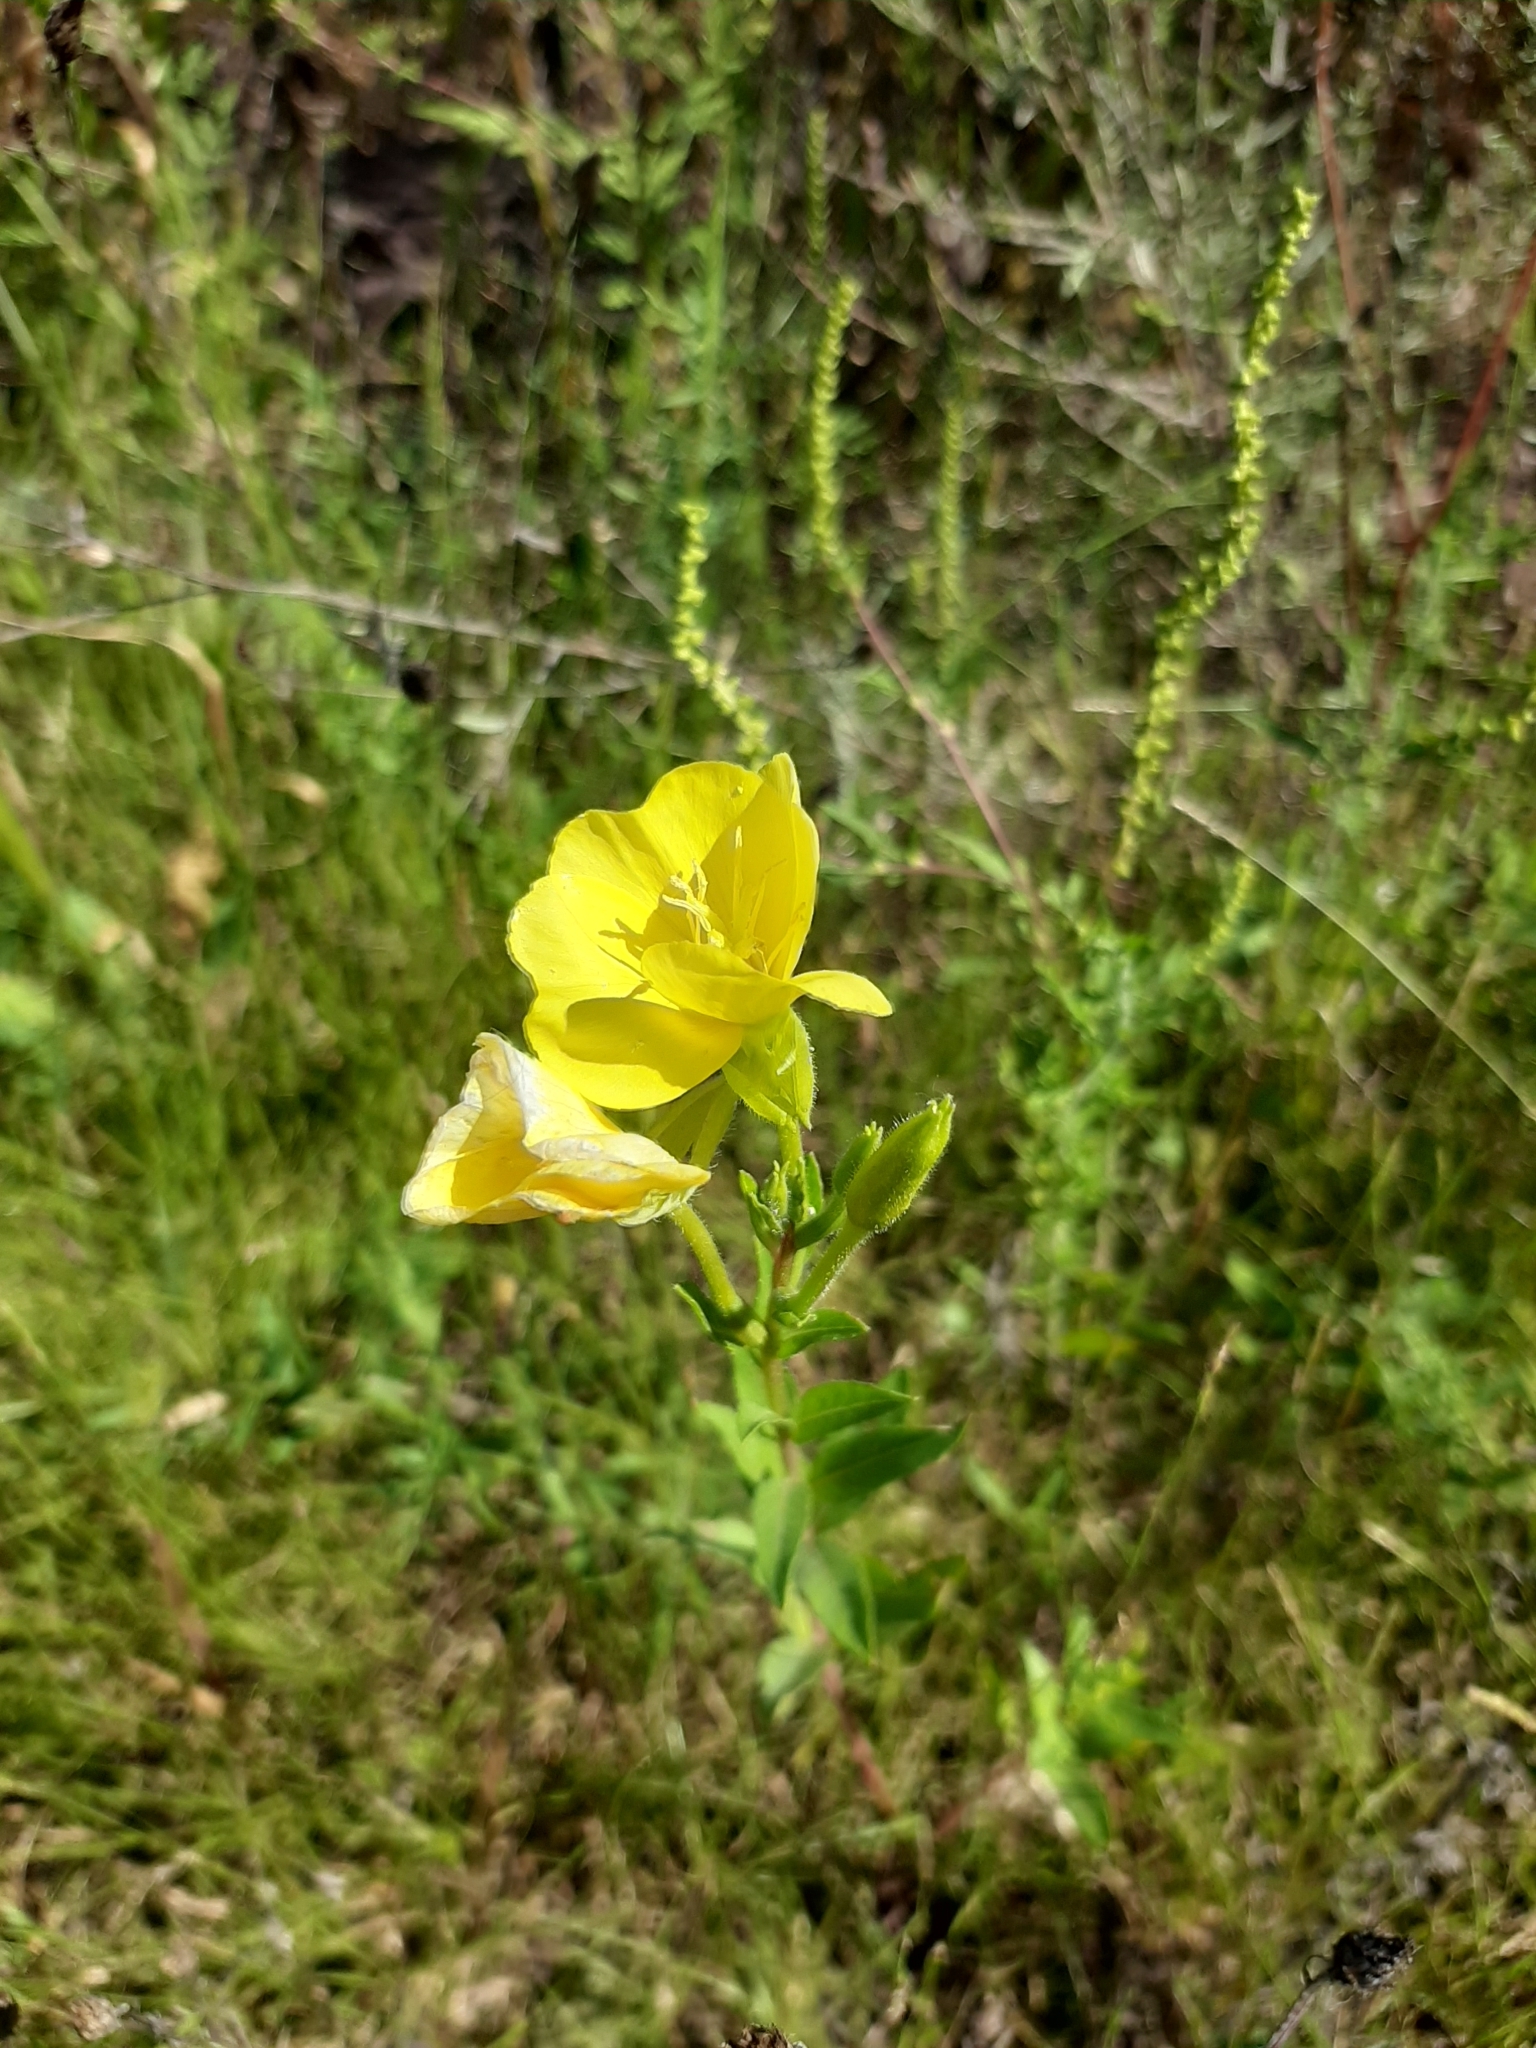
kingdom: Plantae
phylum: Tracheophyta
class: Magnoliopsida
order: Myrtales
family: Onagraceae
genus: Oenothera
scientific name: Oenothera biennis
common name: Common evening-primrose
